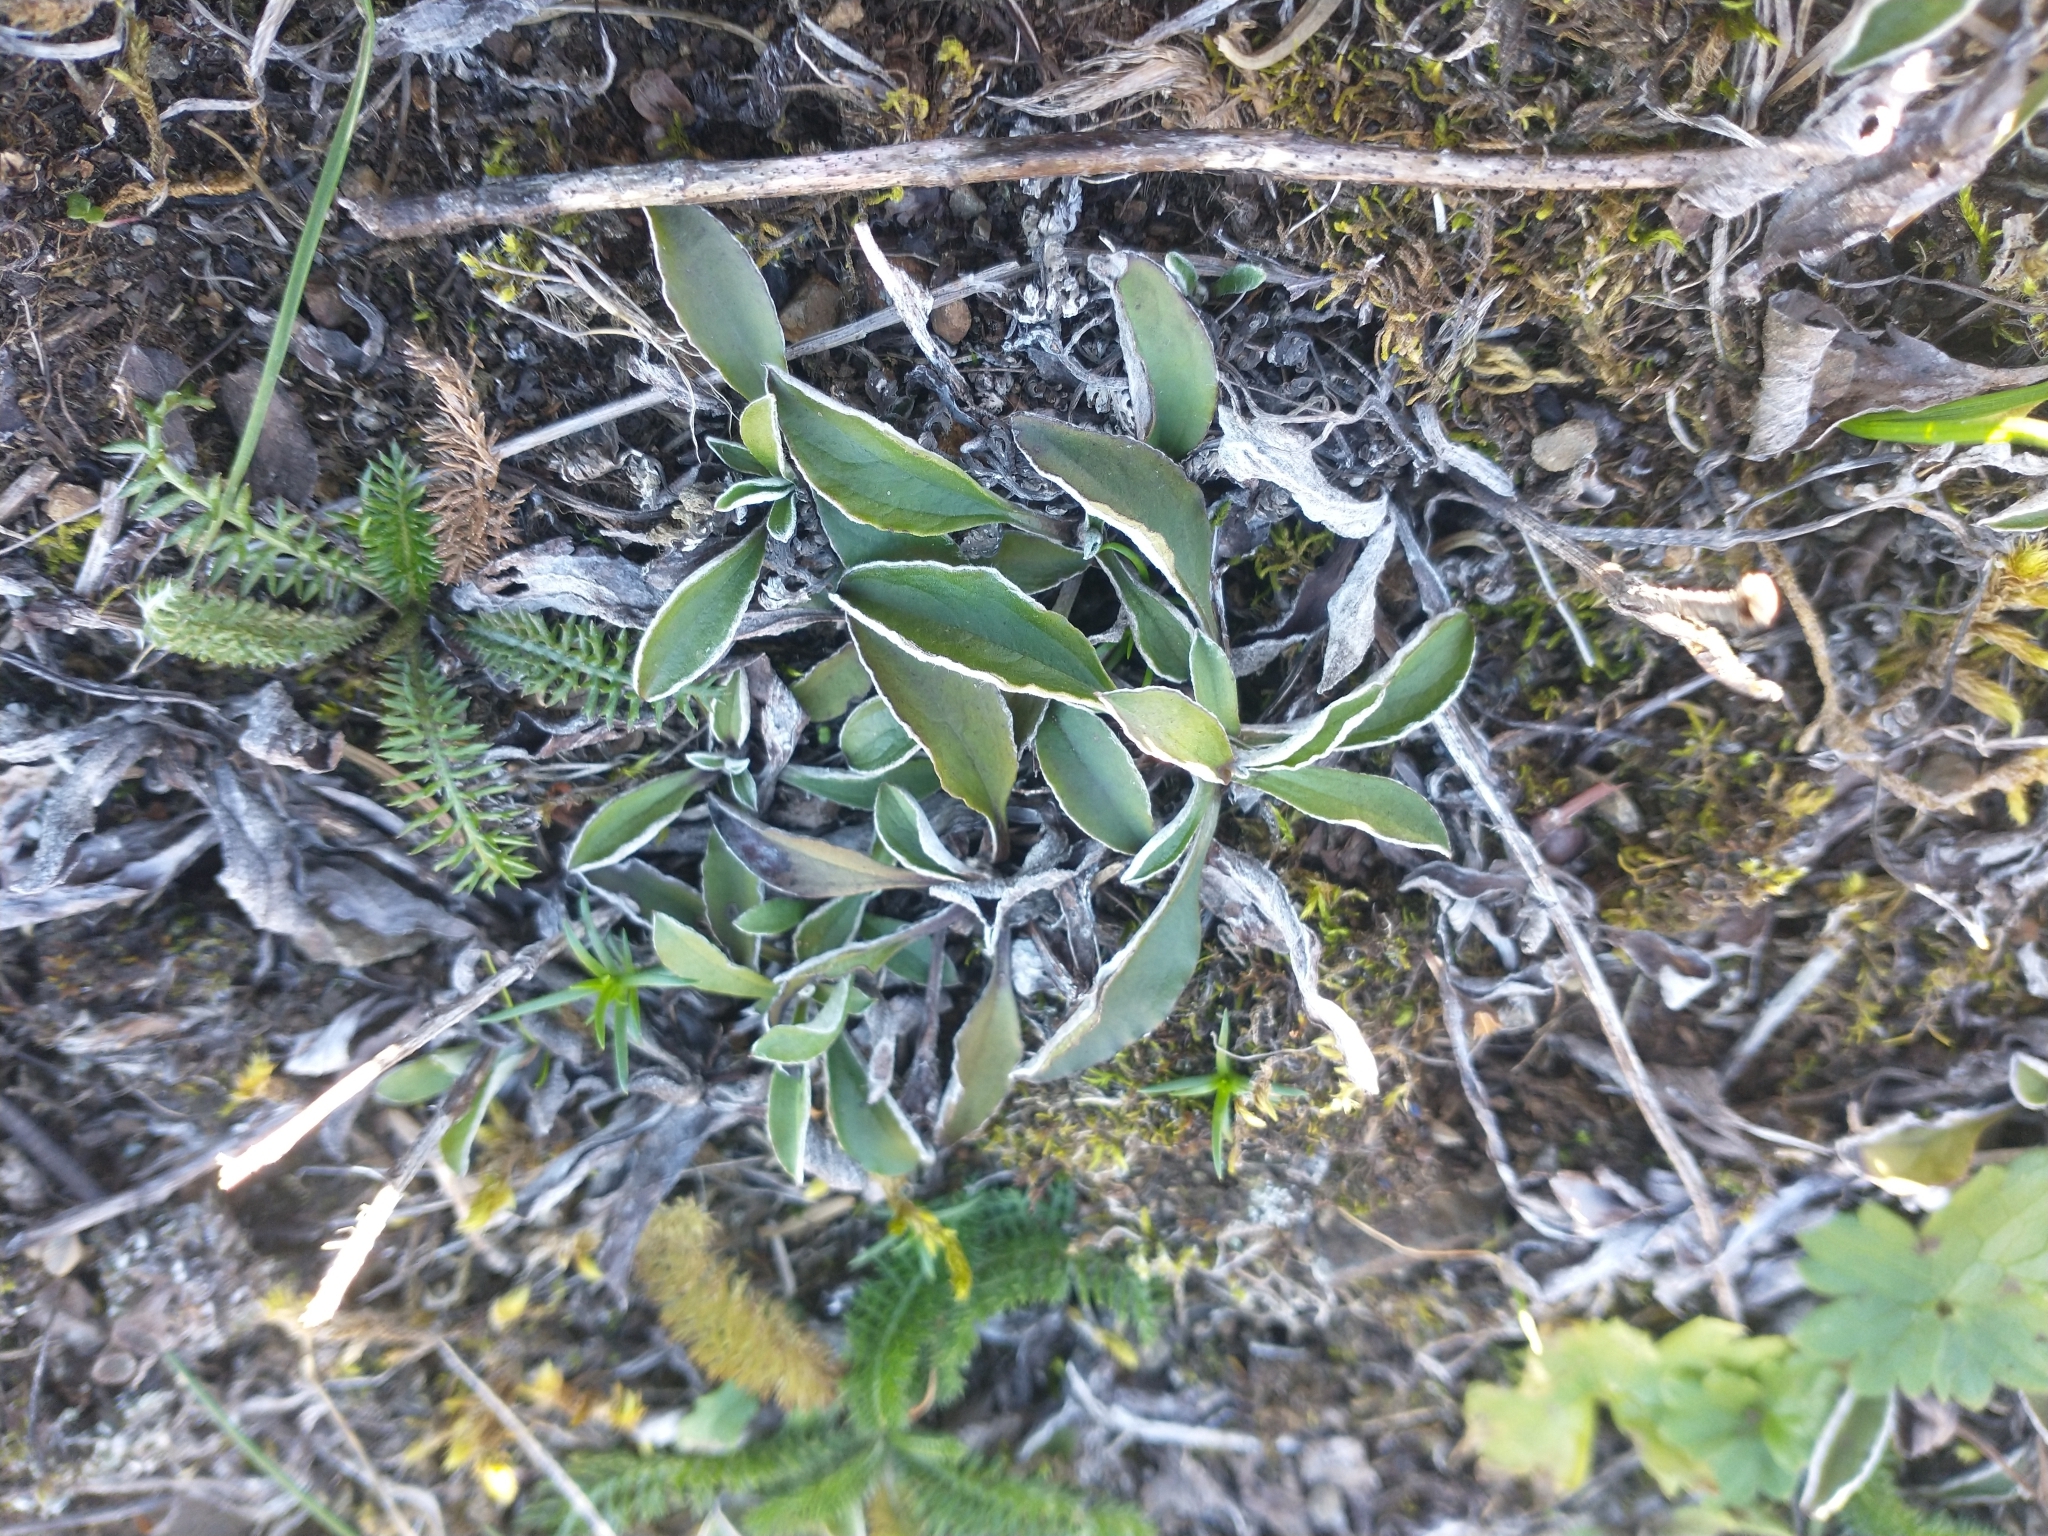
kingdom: Plantae
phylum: Tracheophyta
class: Magnoliopsida
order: Asterales
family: Asteraceae
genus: Antennaria
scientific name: Antennaria racemosa
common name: Racemose pussytoes
